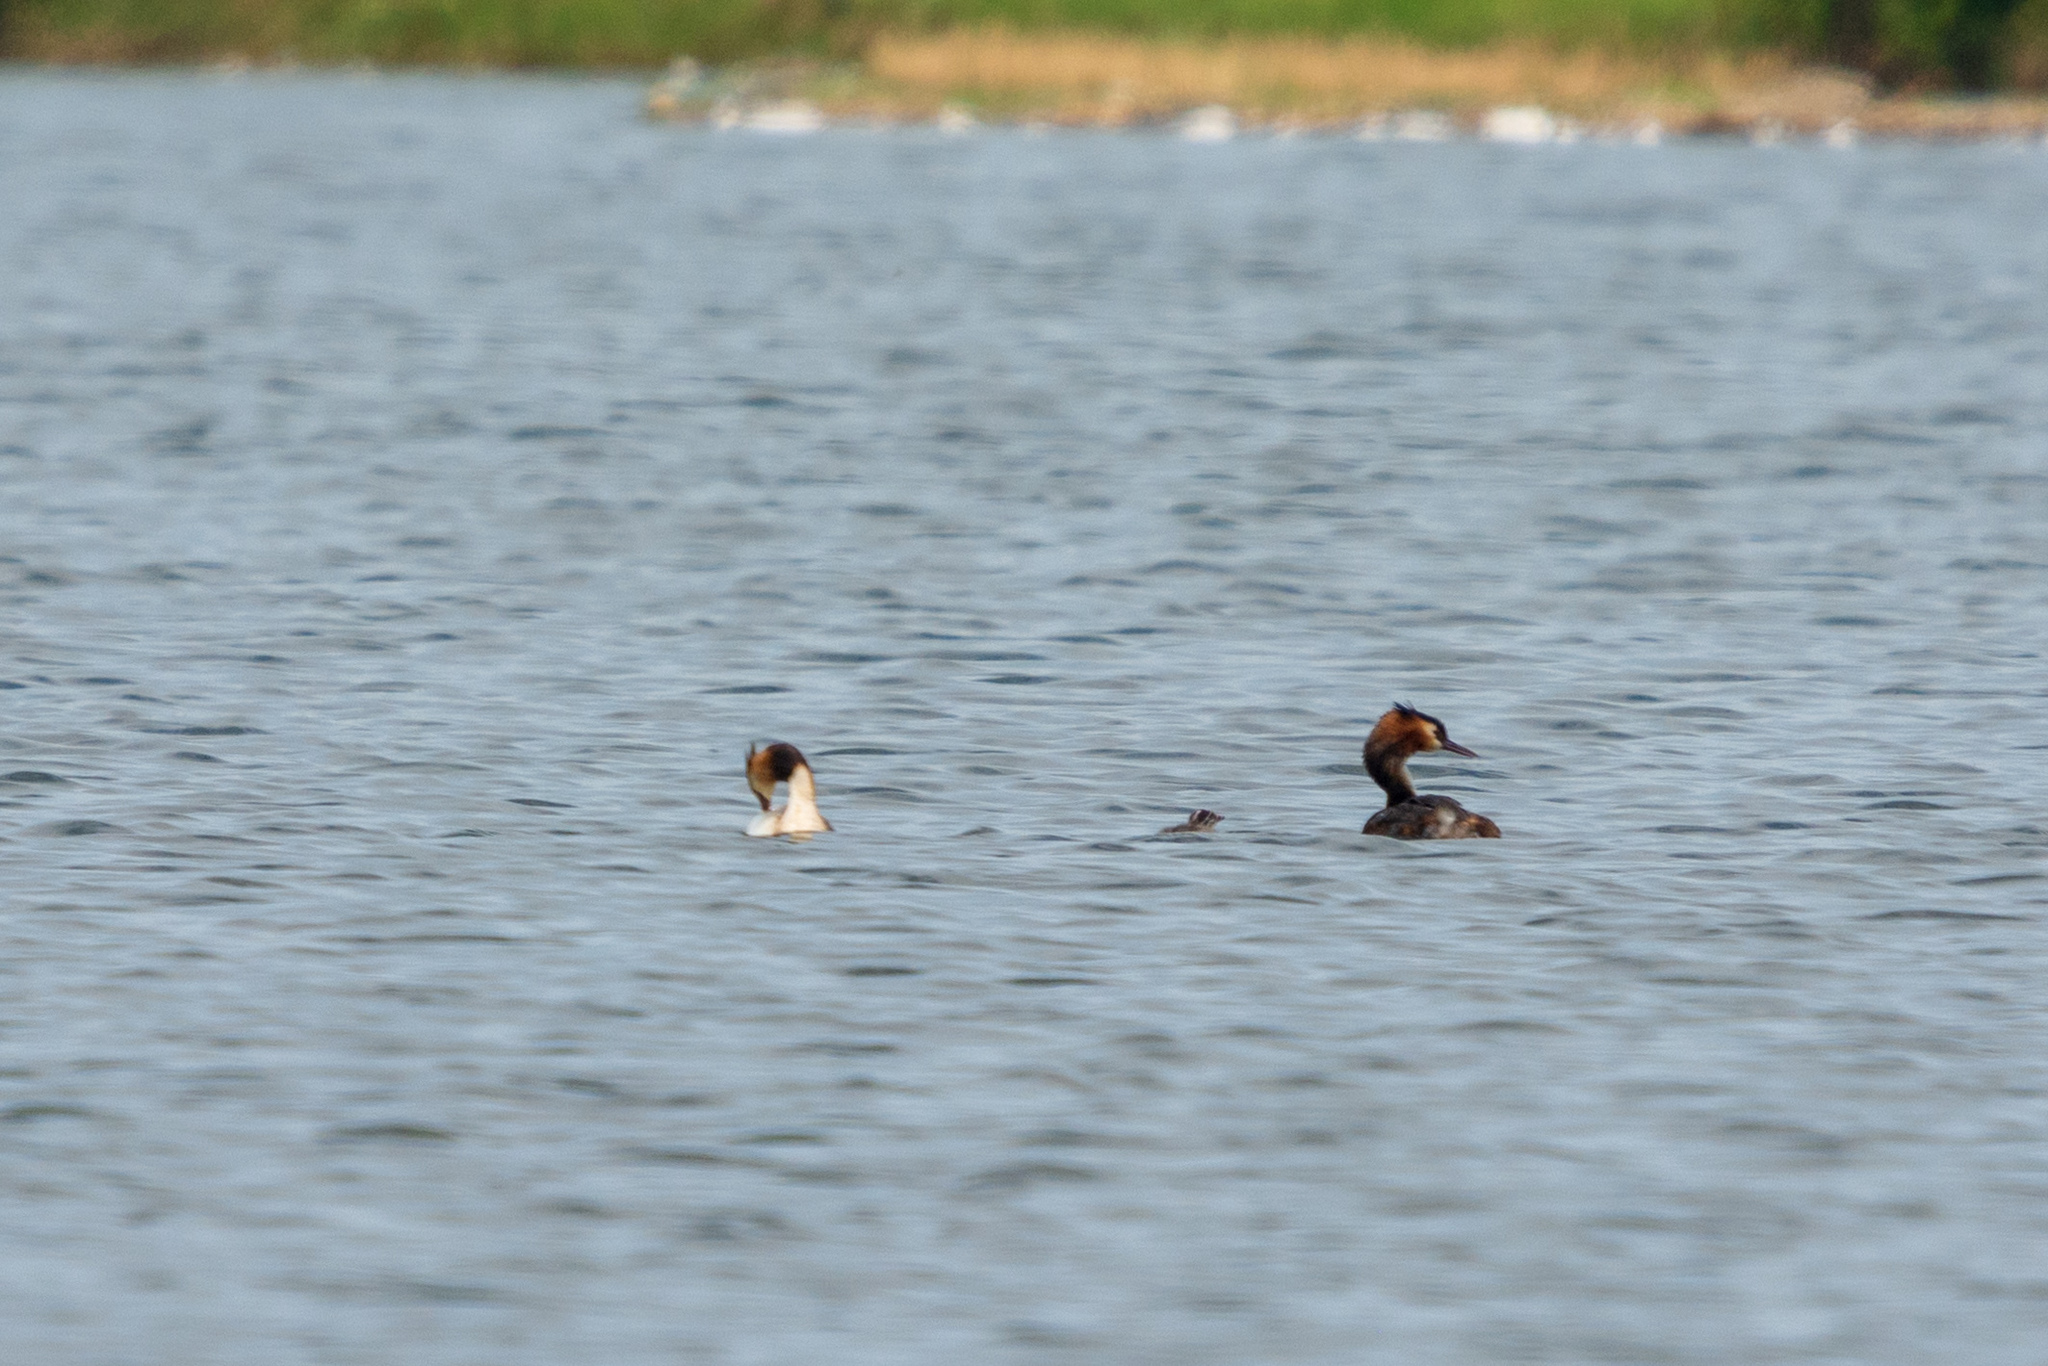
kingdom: Animalia
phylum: Chordata
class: Aves
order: Podicipediformes
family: Podicipedidae
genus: Podiceps
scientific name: Podiceps cristatus
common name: Great crested grebe
